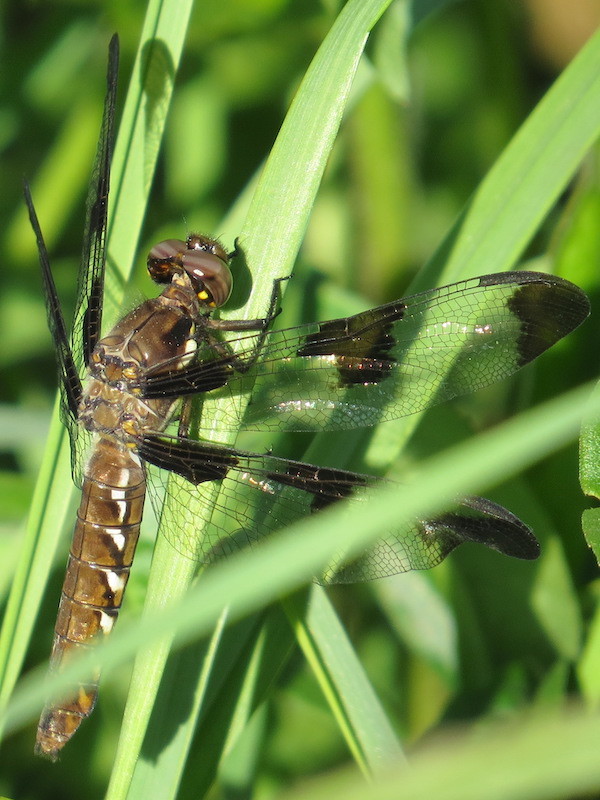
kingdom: Animalia
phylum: Arthropoda
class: Insecta
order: Odonata
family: Libellulidae
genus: Plathemis
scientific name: Plathemis lydia
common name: Common whitetail
